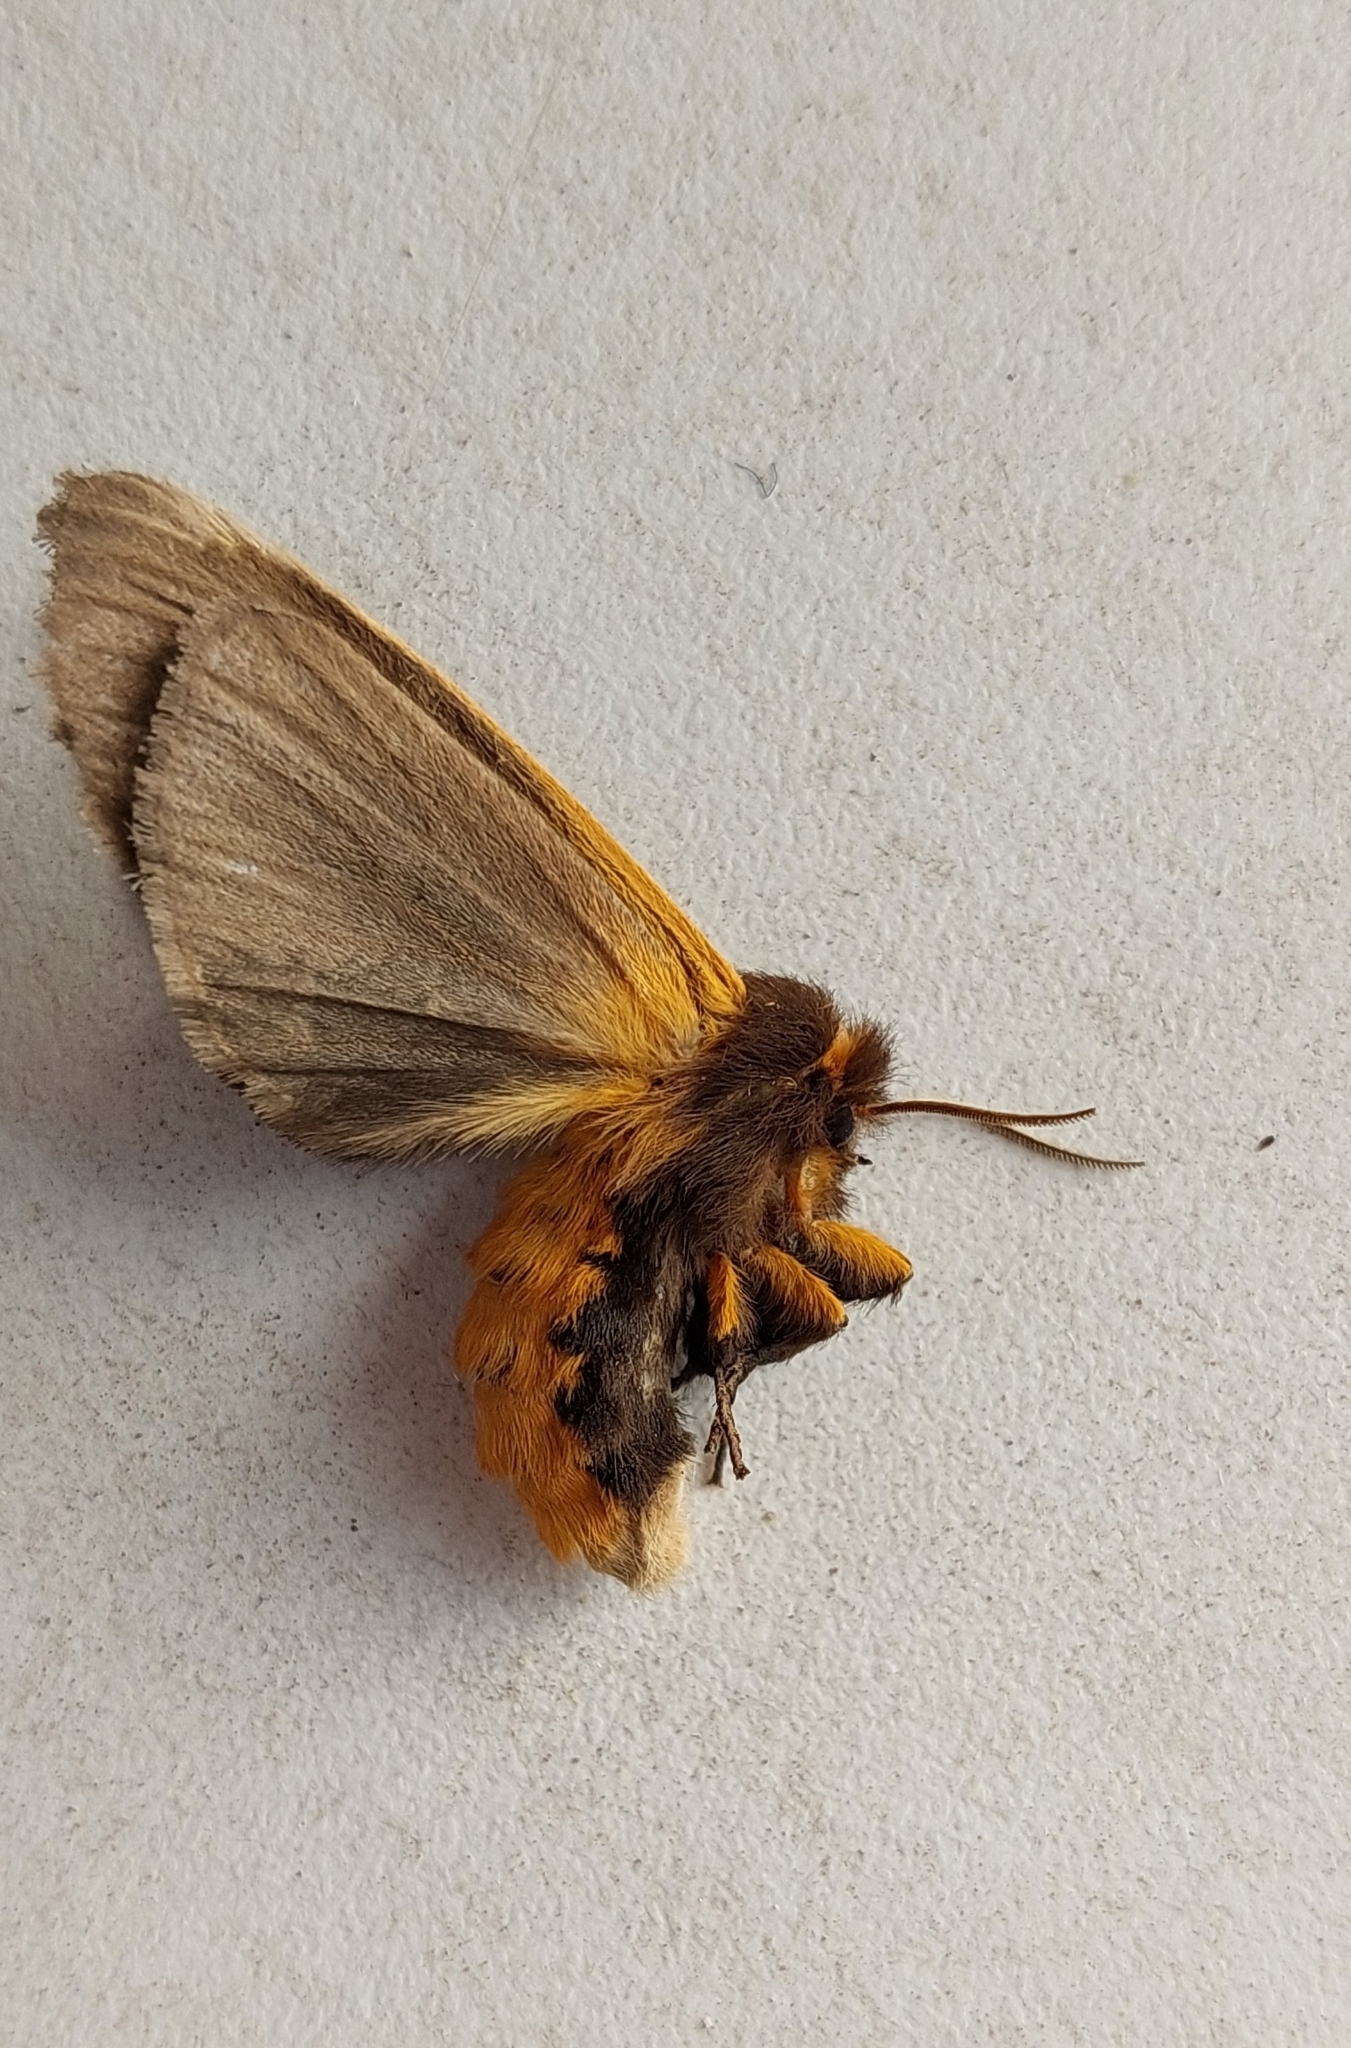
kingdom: Animalia
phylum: Arthropoda
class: Insecta
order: Lepidoptera
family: Erebidae
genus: Paracles
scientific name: Paracles vulpina
